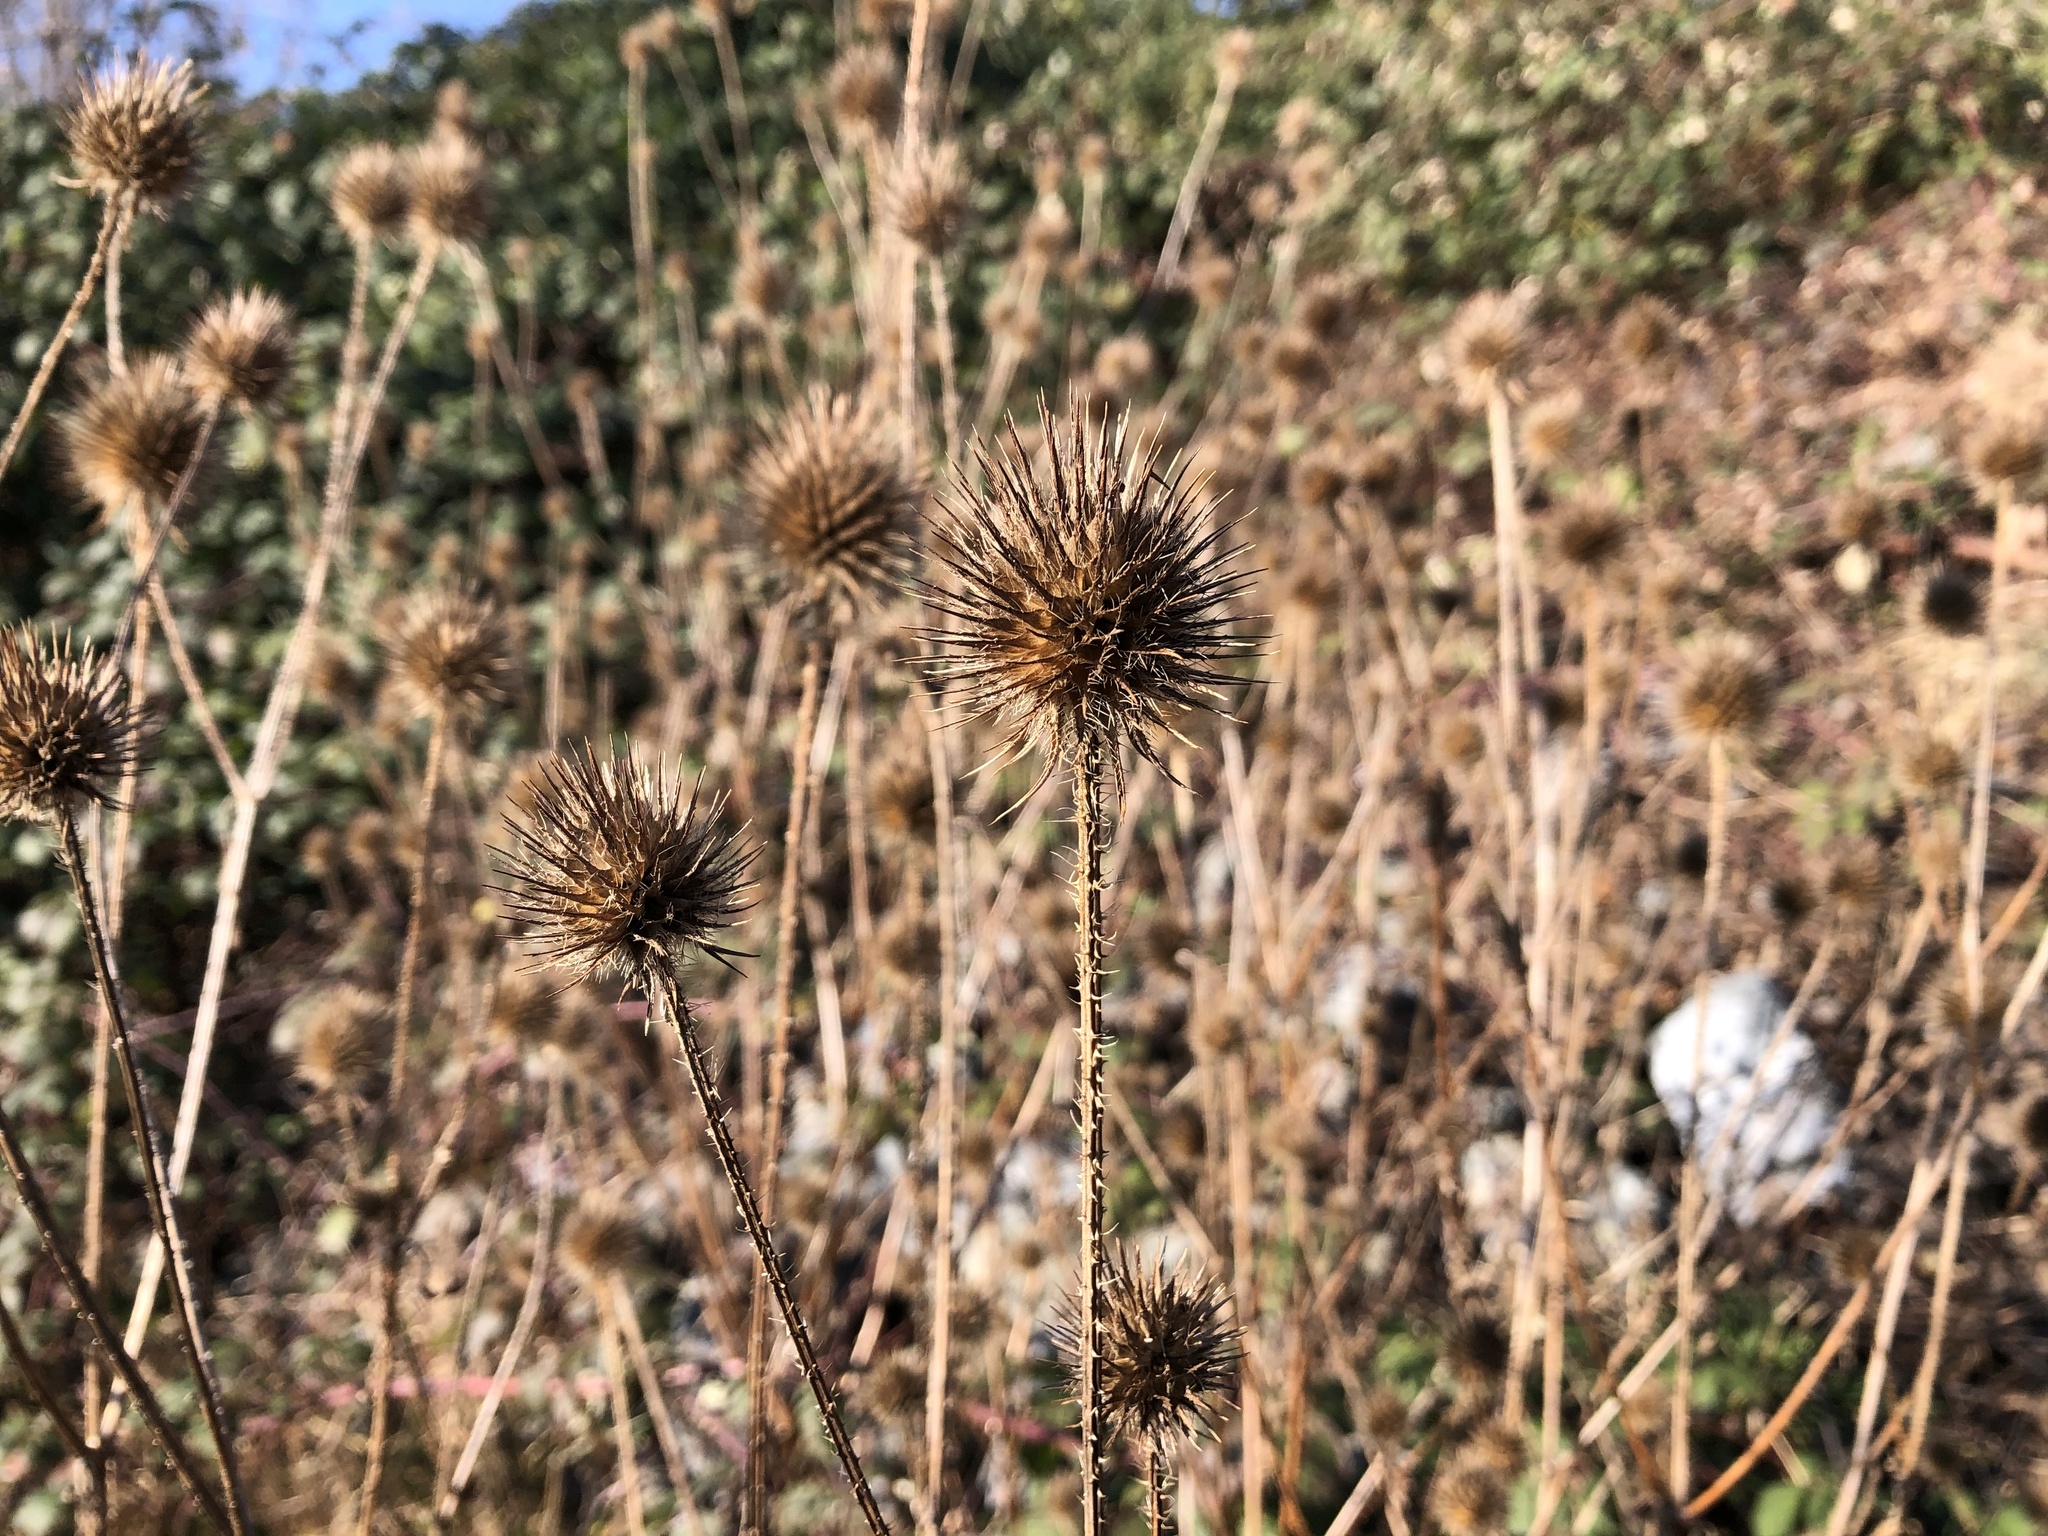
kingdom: Plantae
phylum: Tracheophyta
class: Magnoliopsida
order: Dipsacales
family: Caprifoliaceae
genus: Dipsacus
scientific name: Dipsacus strigosus
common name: Yellow-flowered teasel
